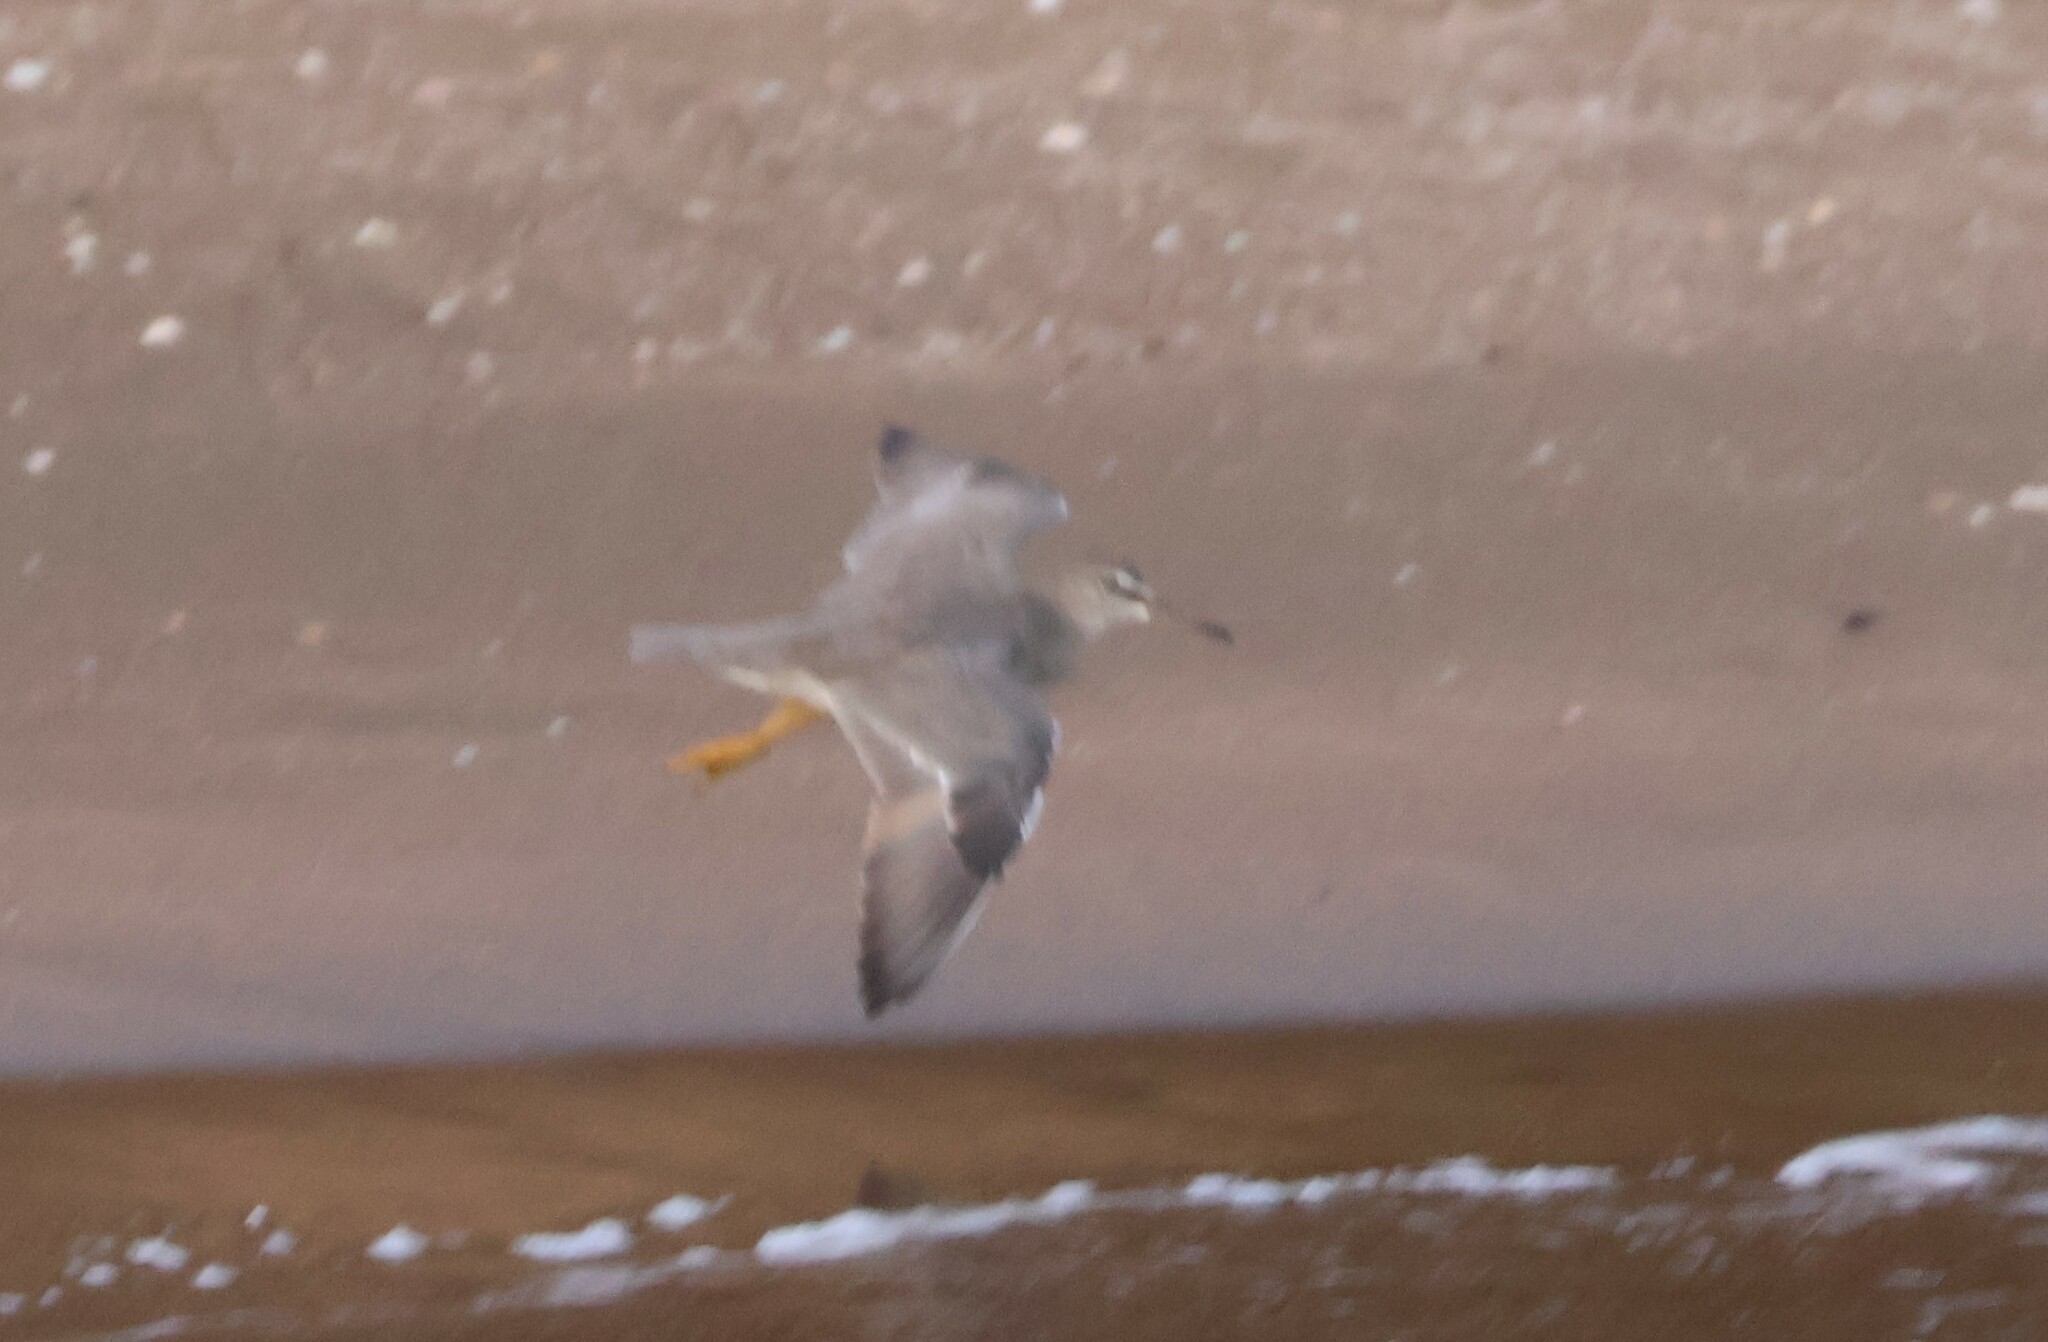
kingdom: Animalia
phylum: Chordata
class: Aves
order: Charadriiformes
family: Scolopacidae
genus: Tringa
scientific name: Tringa incana
